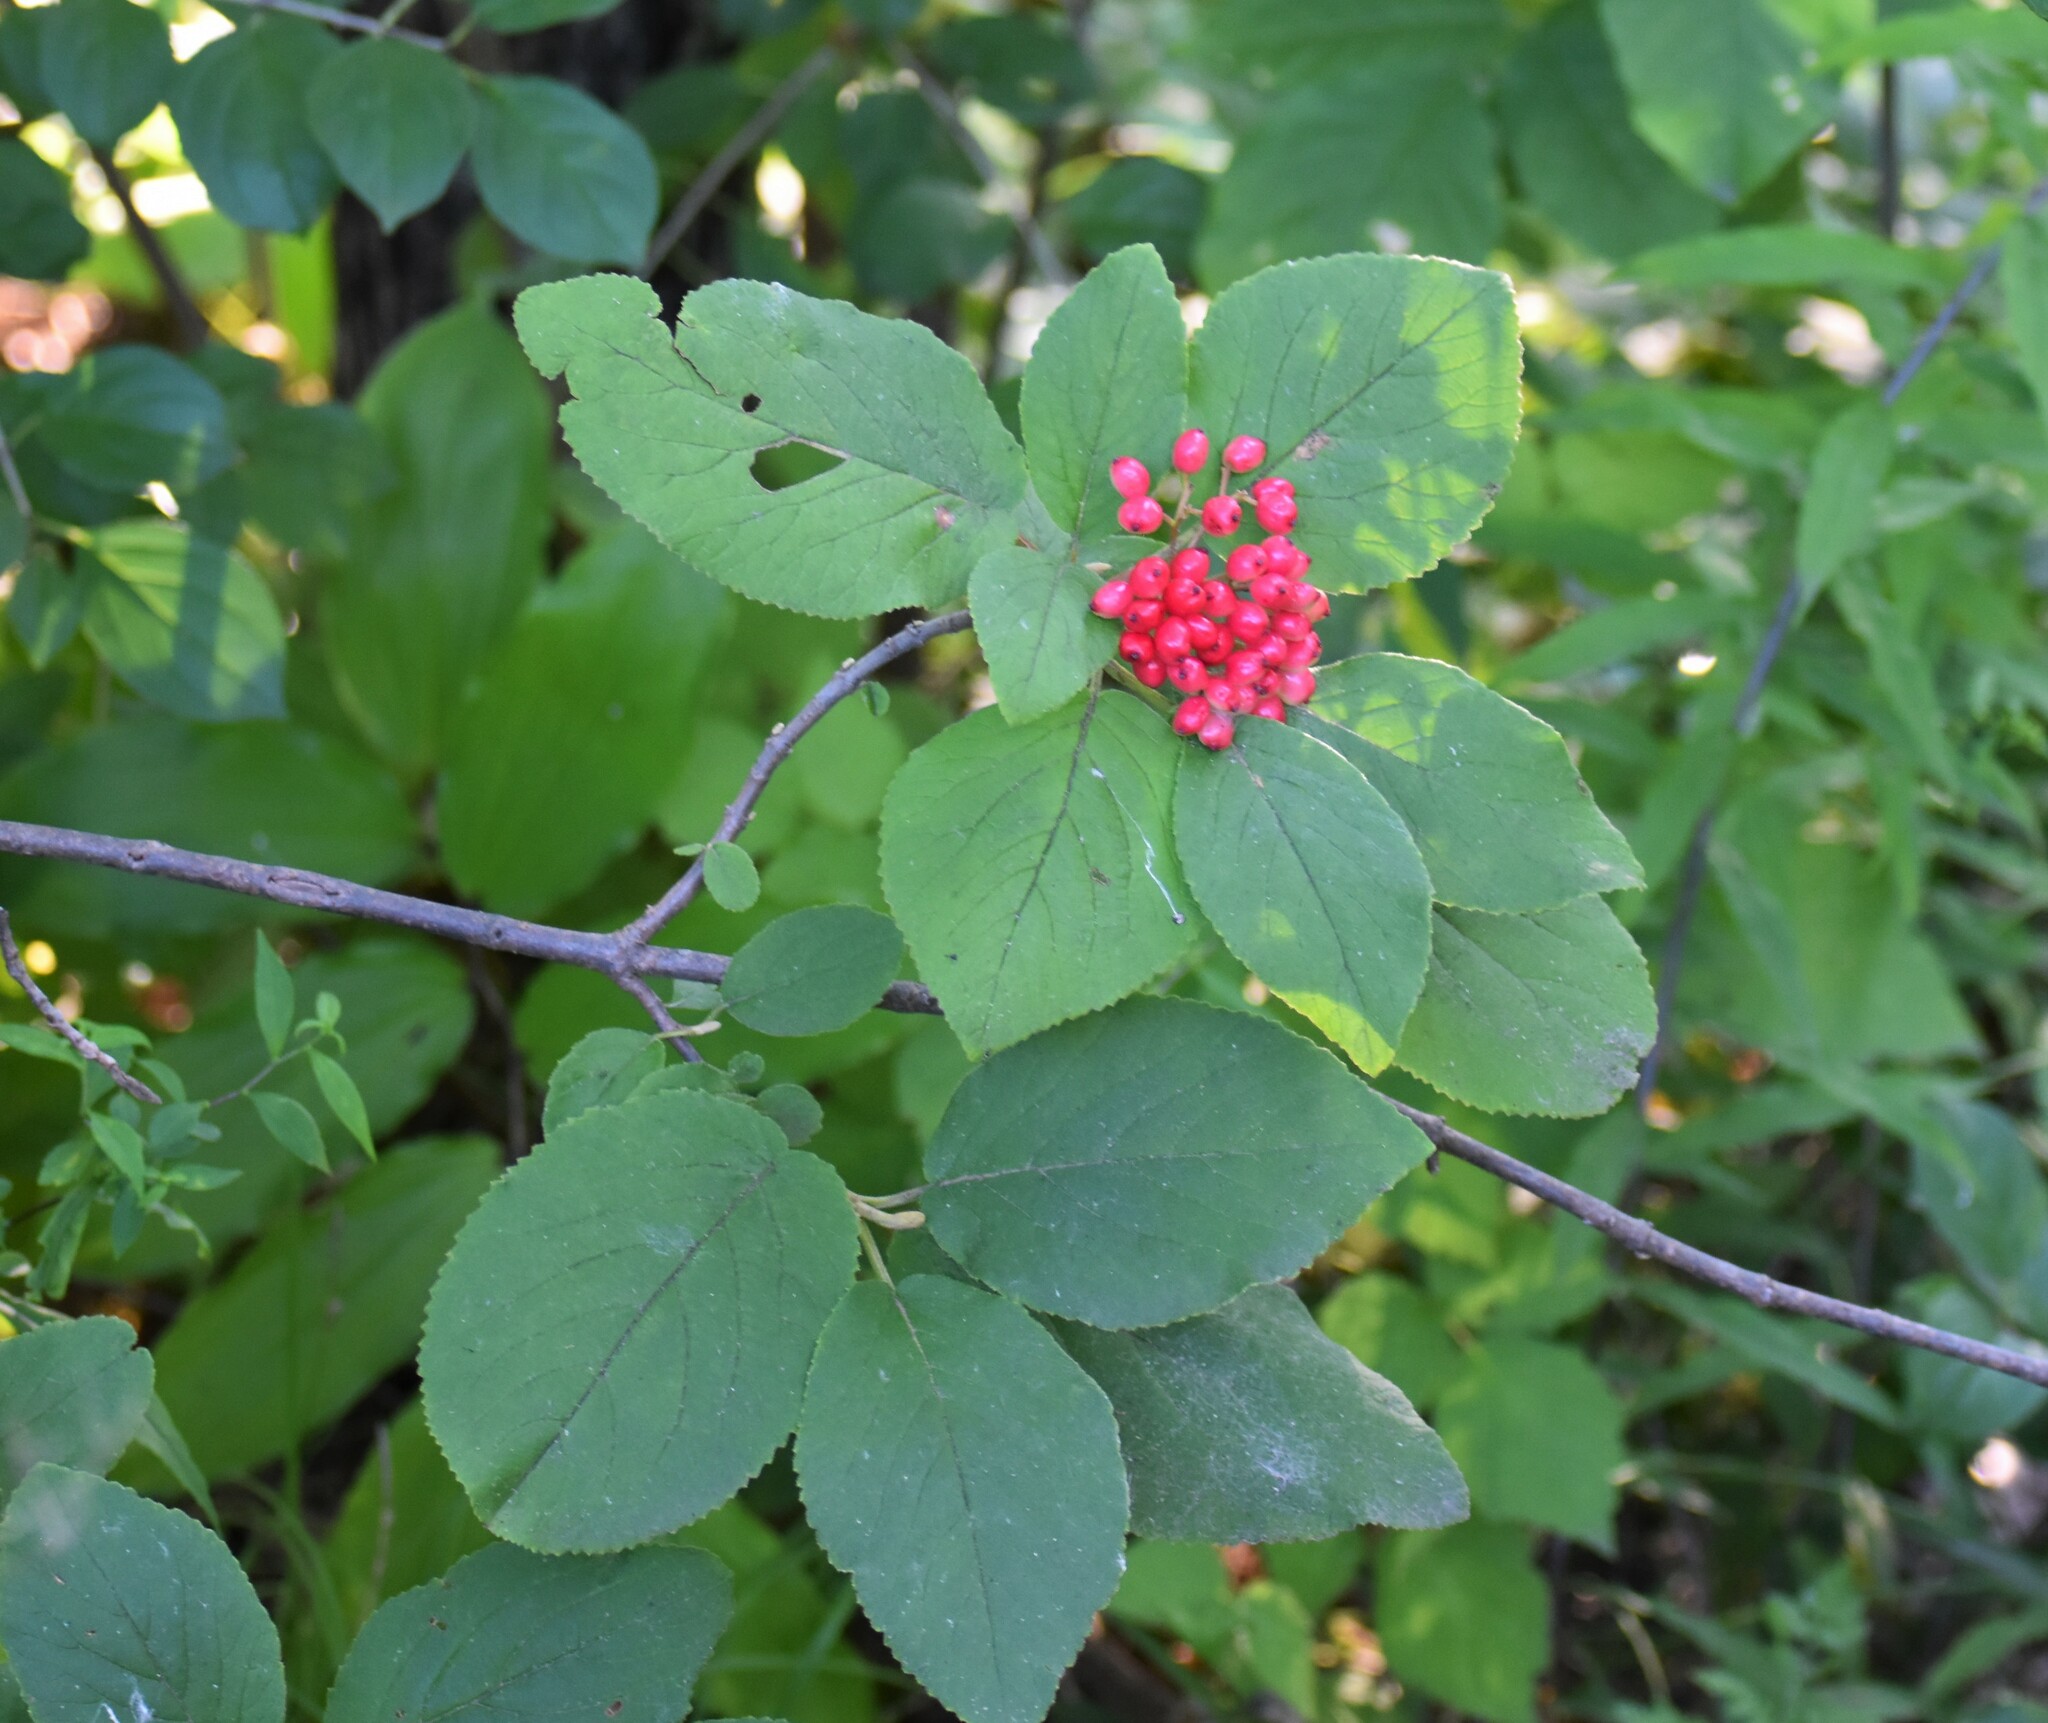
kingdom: Plantae
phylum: Tracheophyta
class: Magnoliopsida
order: Dipsacales
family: Viburnaceae
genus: Viburnum
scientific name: Viburnum lantana
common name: Wayfaring tree
